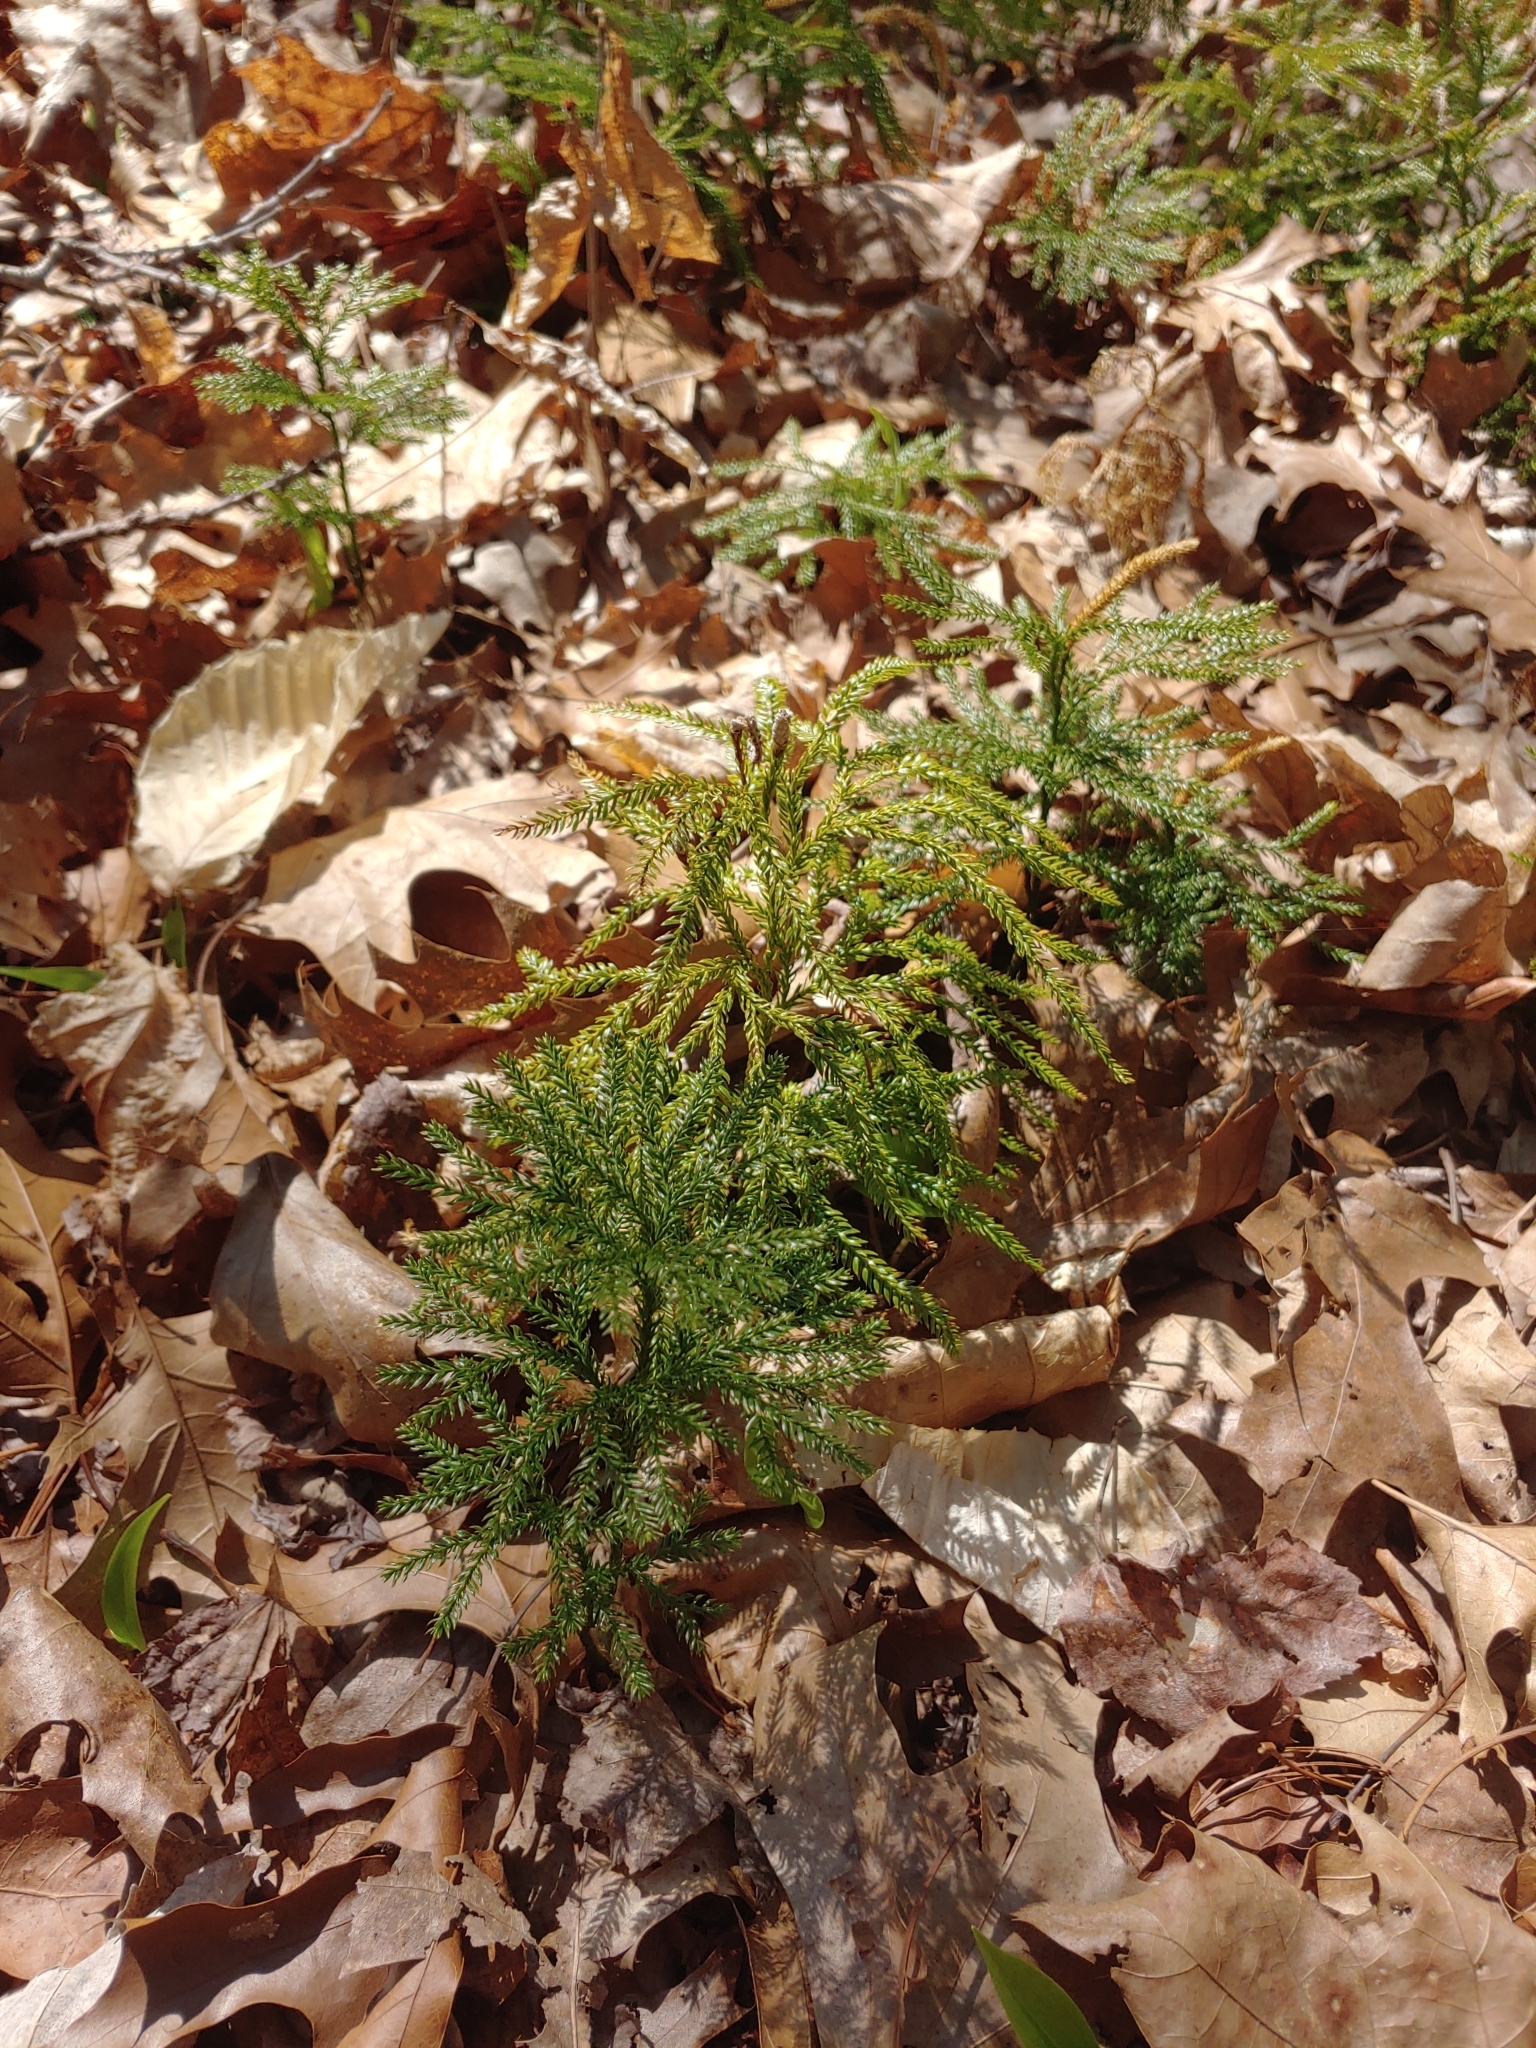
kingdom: Plantae
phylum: Tracheophyta
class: Lycopodiopsida
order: Lycopodiales
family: Lycopodiaceae
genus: Dendrolycopodium
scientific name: Dendrolycopodium obscurum
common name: Common ground-pine
